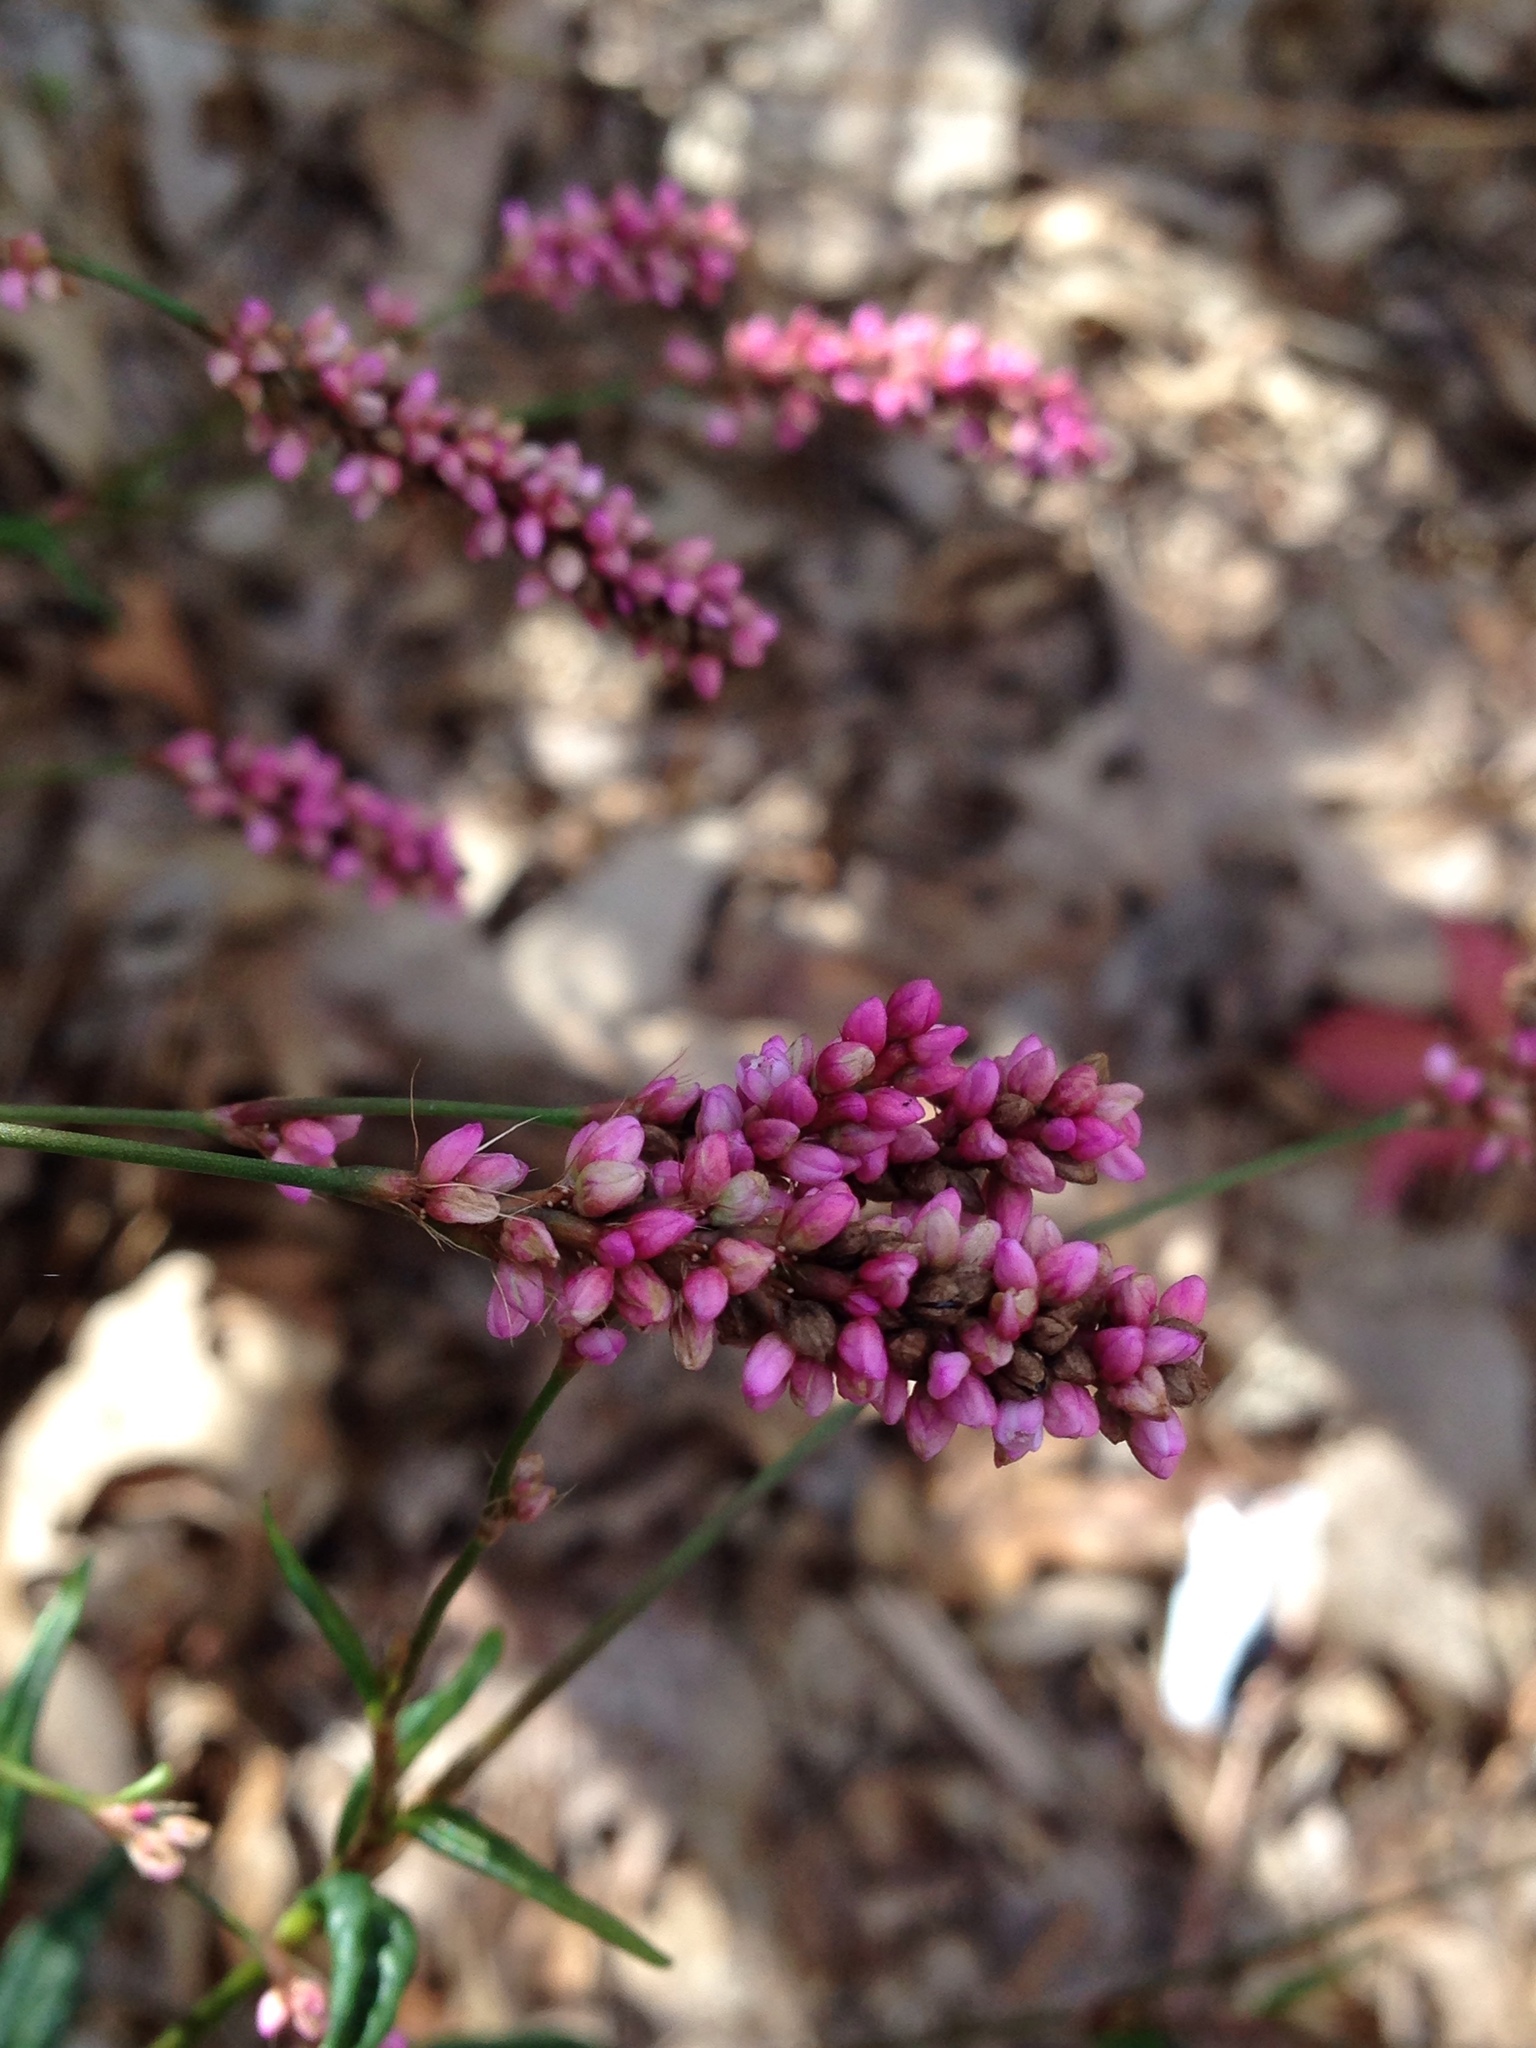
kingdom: Plantae
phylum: Tracheophyta
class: Magnoliopsida
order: Caryophyllales
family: Polygonaceae
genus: Persicaria
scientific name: Persicaria longiseta
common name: Bristly lady's-thumb
